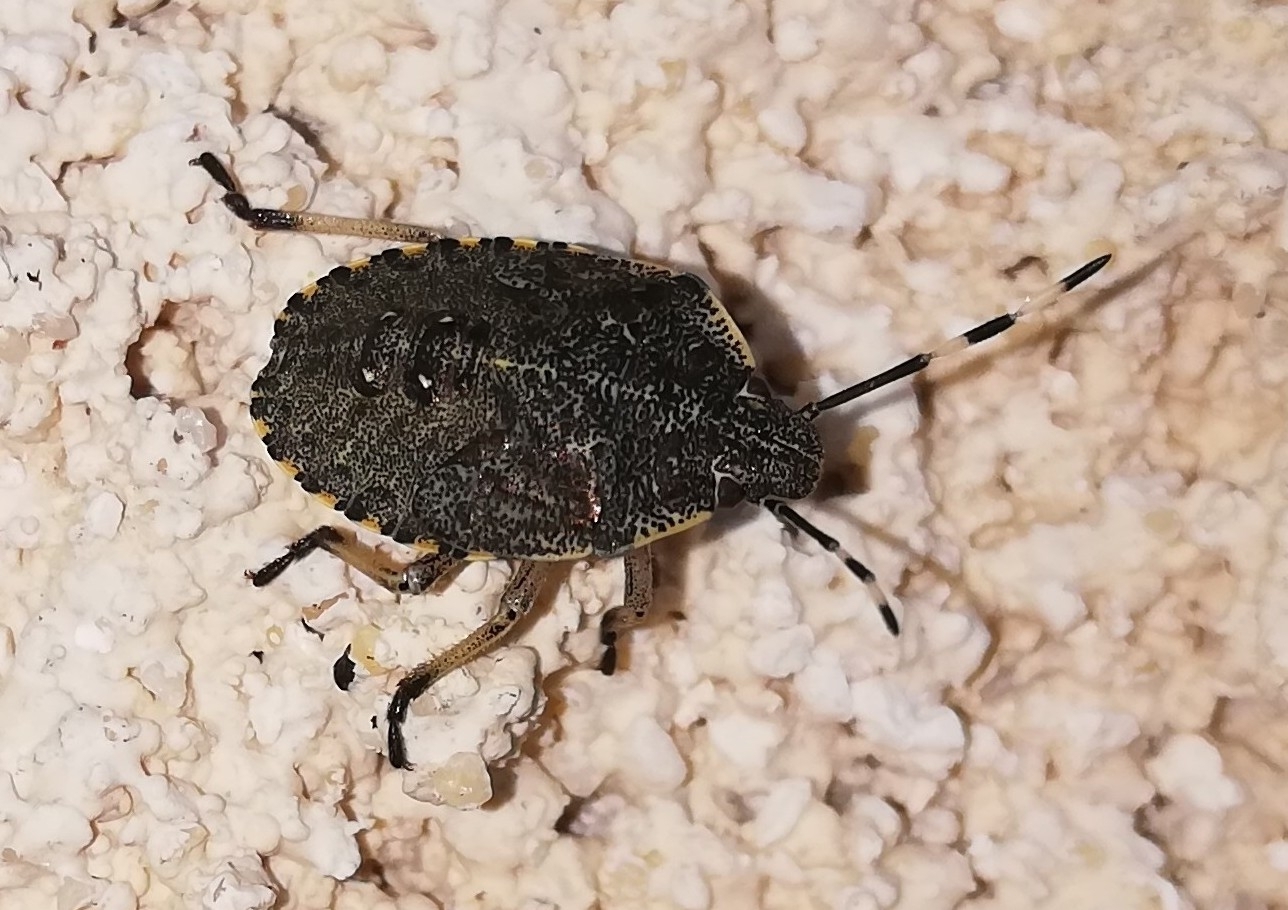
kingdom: Animalia
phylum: Arthropoda
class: Insecta
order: Hemiptera
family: Pentatomidae
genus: Rhaphigaster
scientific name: Rhaphigaster nebulosa
